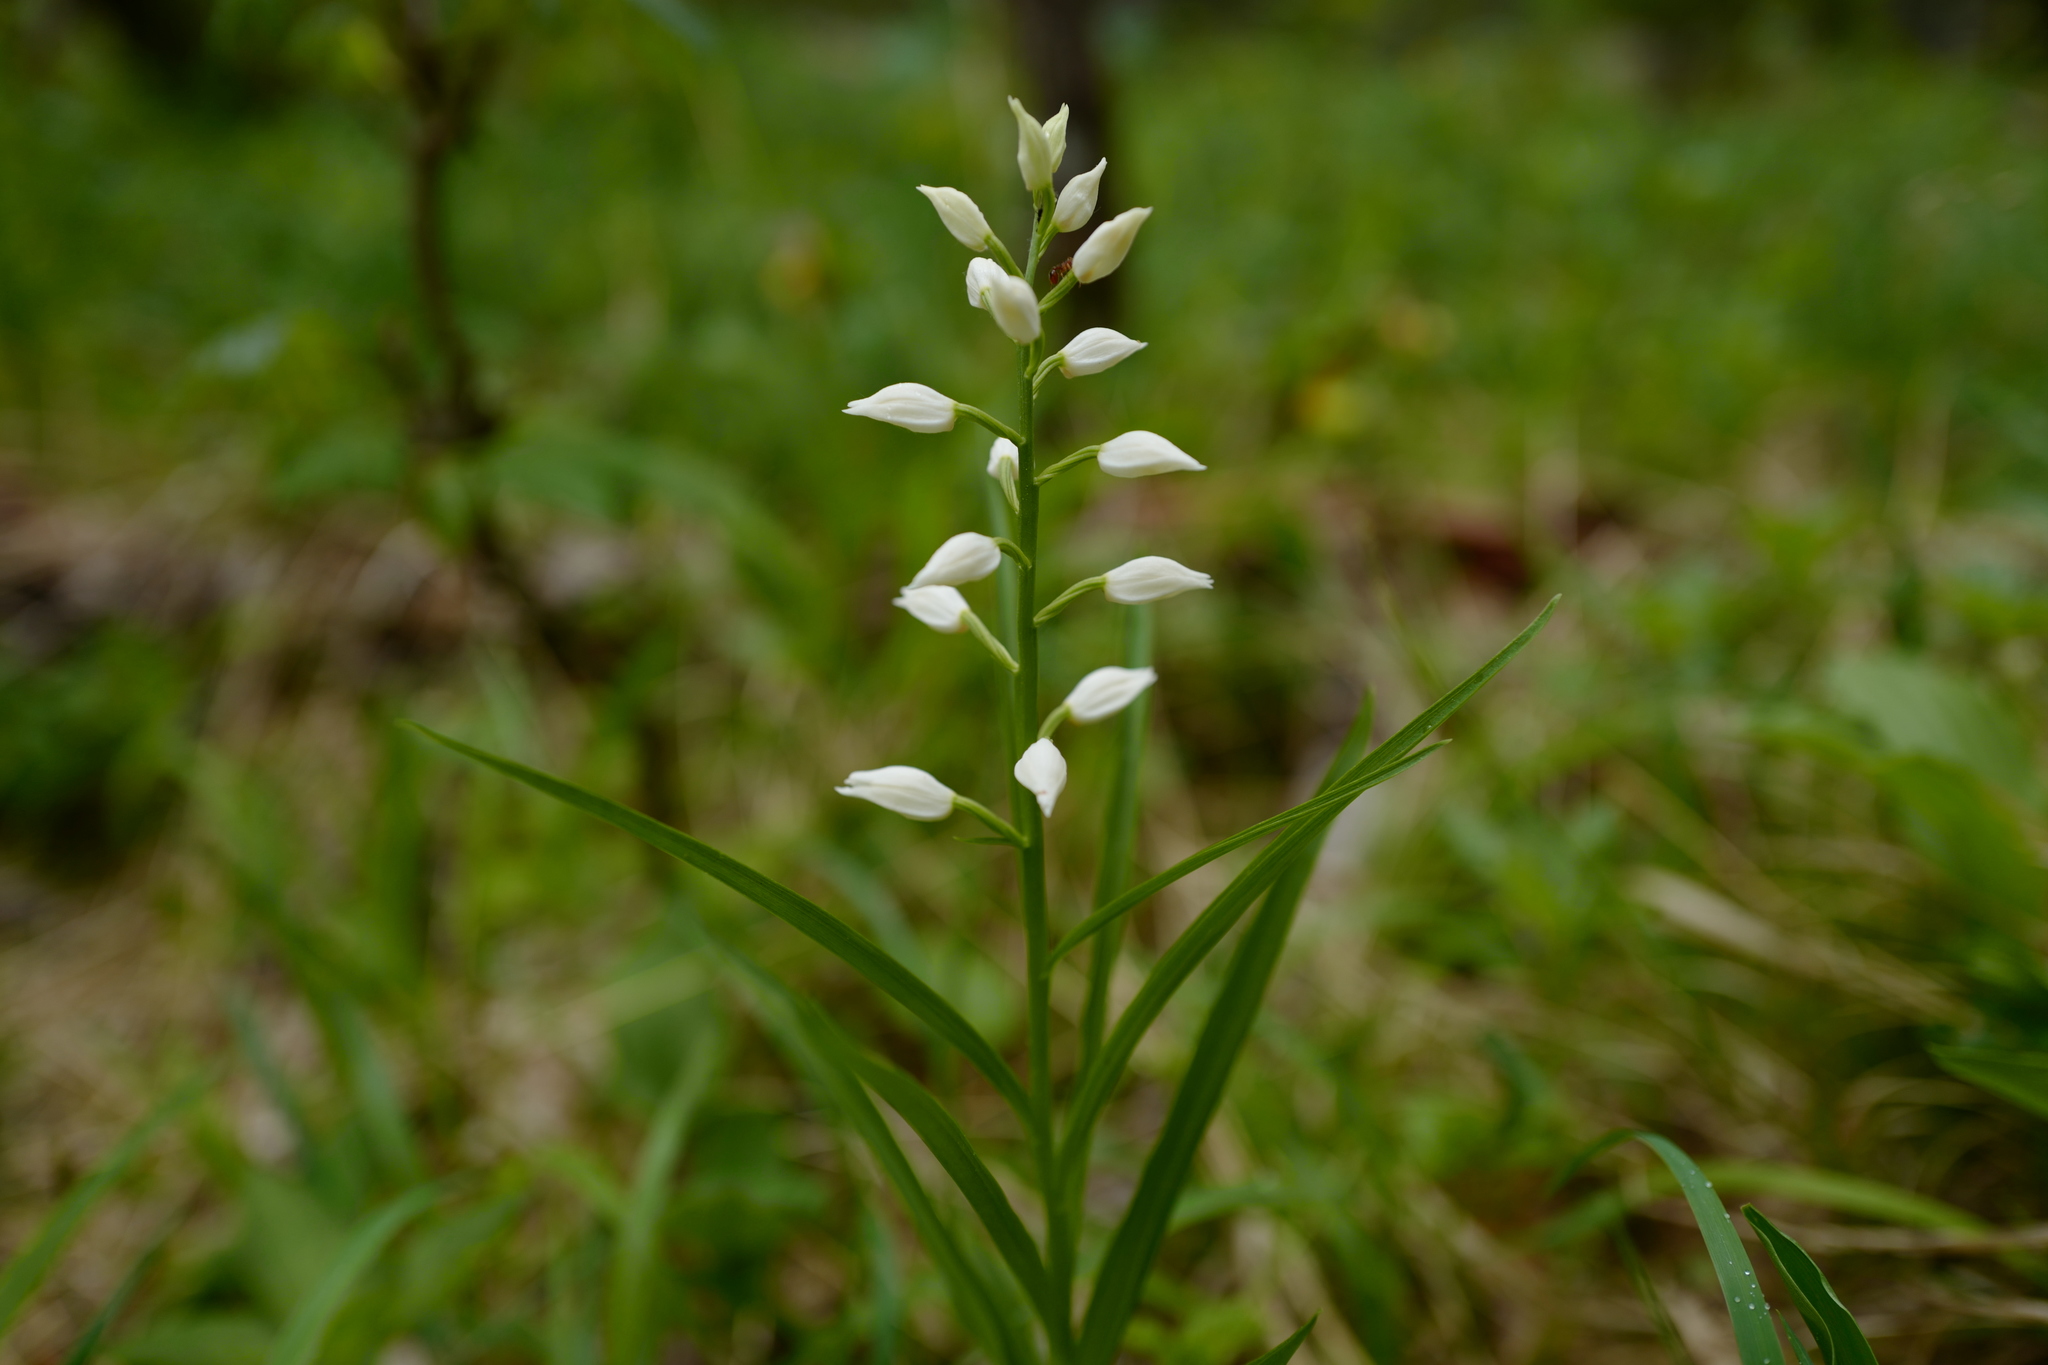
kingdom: Plantae
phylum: Tracheophyta
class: Liliopsida
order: Asparagales
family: Orchidaceae
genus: Cephalanthera
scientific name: Cephalanthera longifolia
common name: Narrow-leaved helleborine
